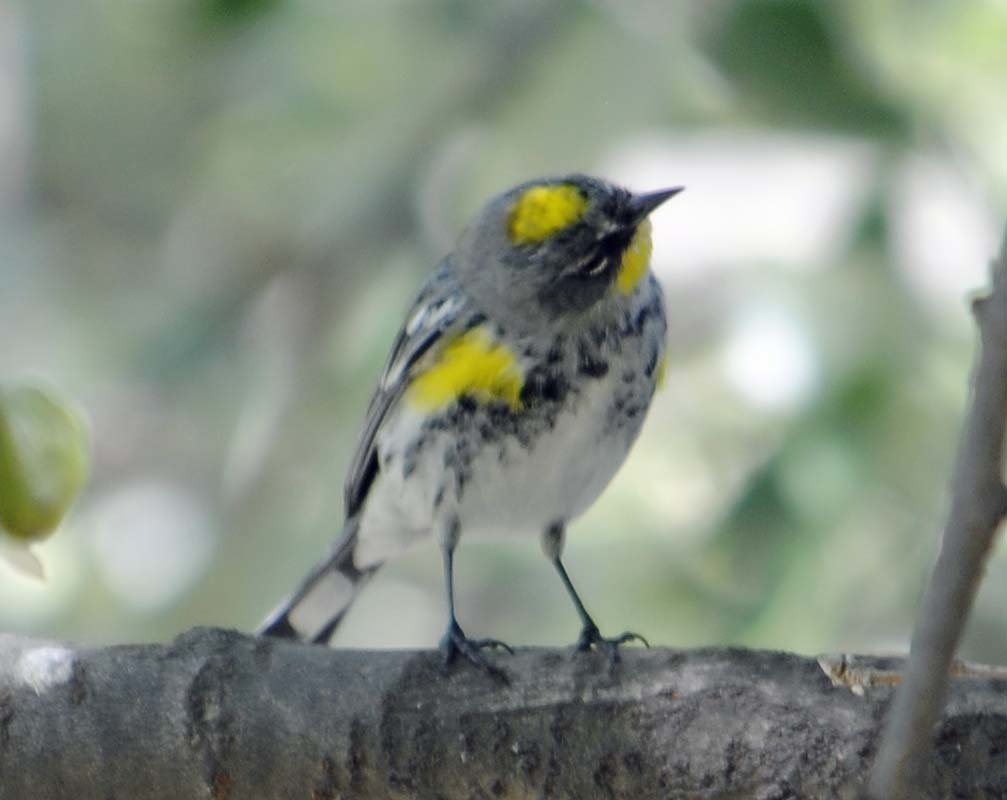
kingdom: Animalia
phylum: Chordata
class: Aves
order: Passeriformes
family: Parulidae
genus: Setophaga
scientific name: Setophaga auduboni
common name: Audubon's warbler
